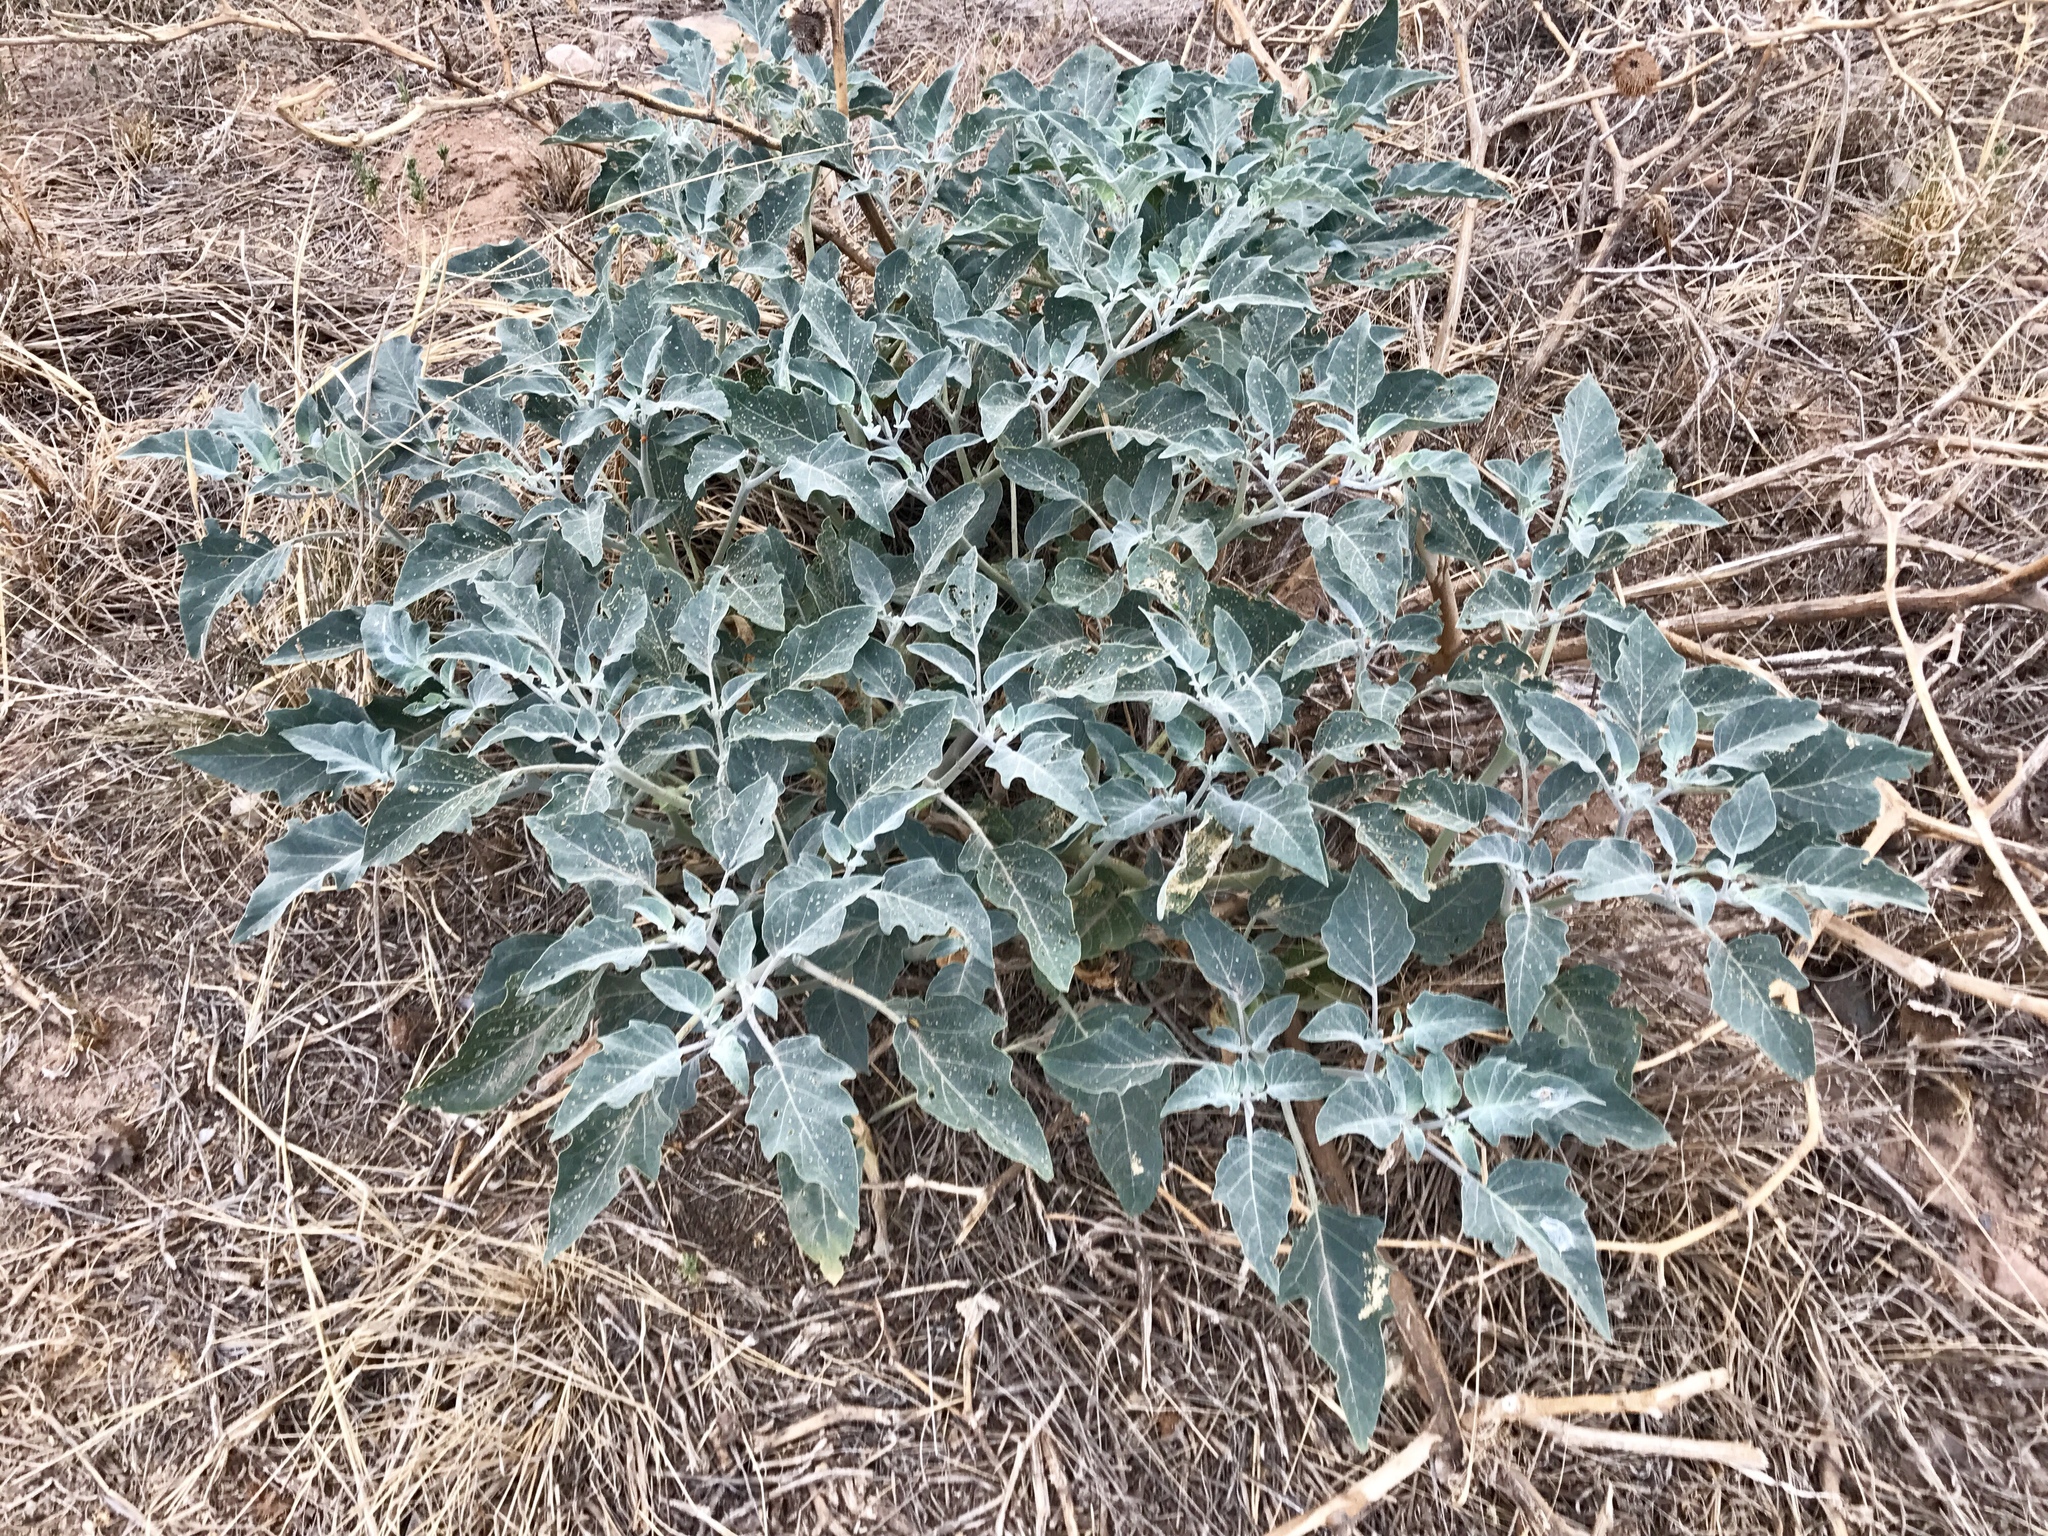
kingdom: Plantae
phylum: Tracheophyta
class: Magnoliopsida
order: Solanales
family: Solanaceae
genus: Datura
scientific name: Datura wrightii
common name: Sacred thorn-apple
